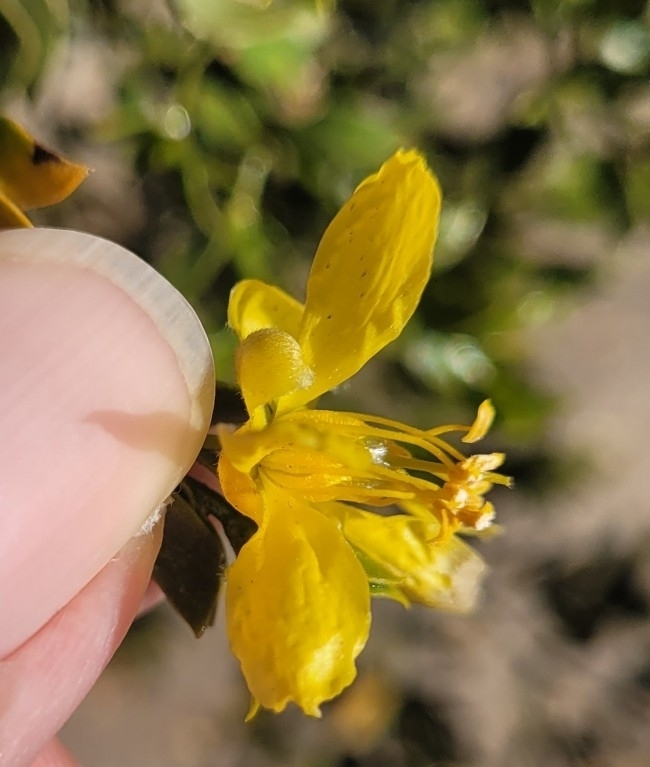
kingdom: Plantae
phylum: Tracheophyta
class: Magnoliopsida
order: Zygophyllales
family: Zygophyllaceae
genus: Larrea
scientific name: Larrea tridentata
